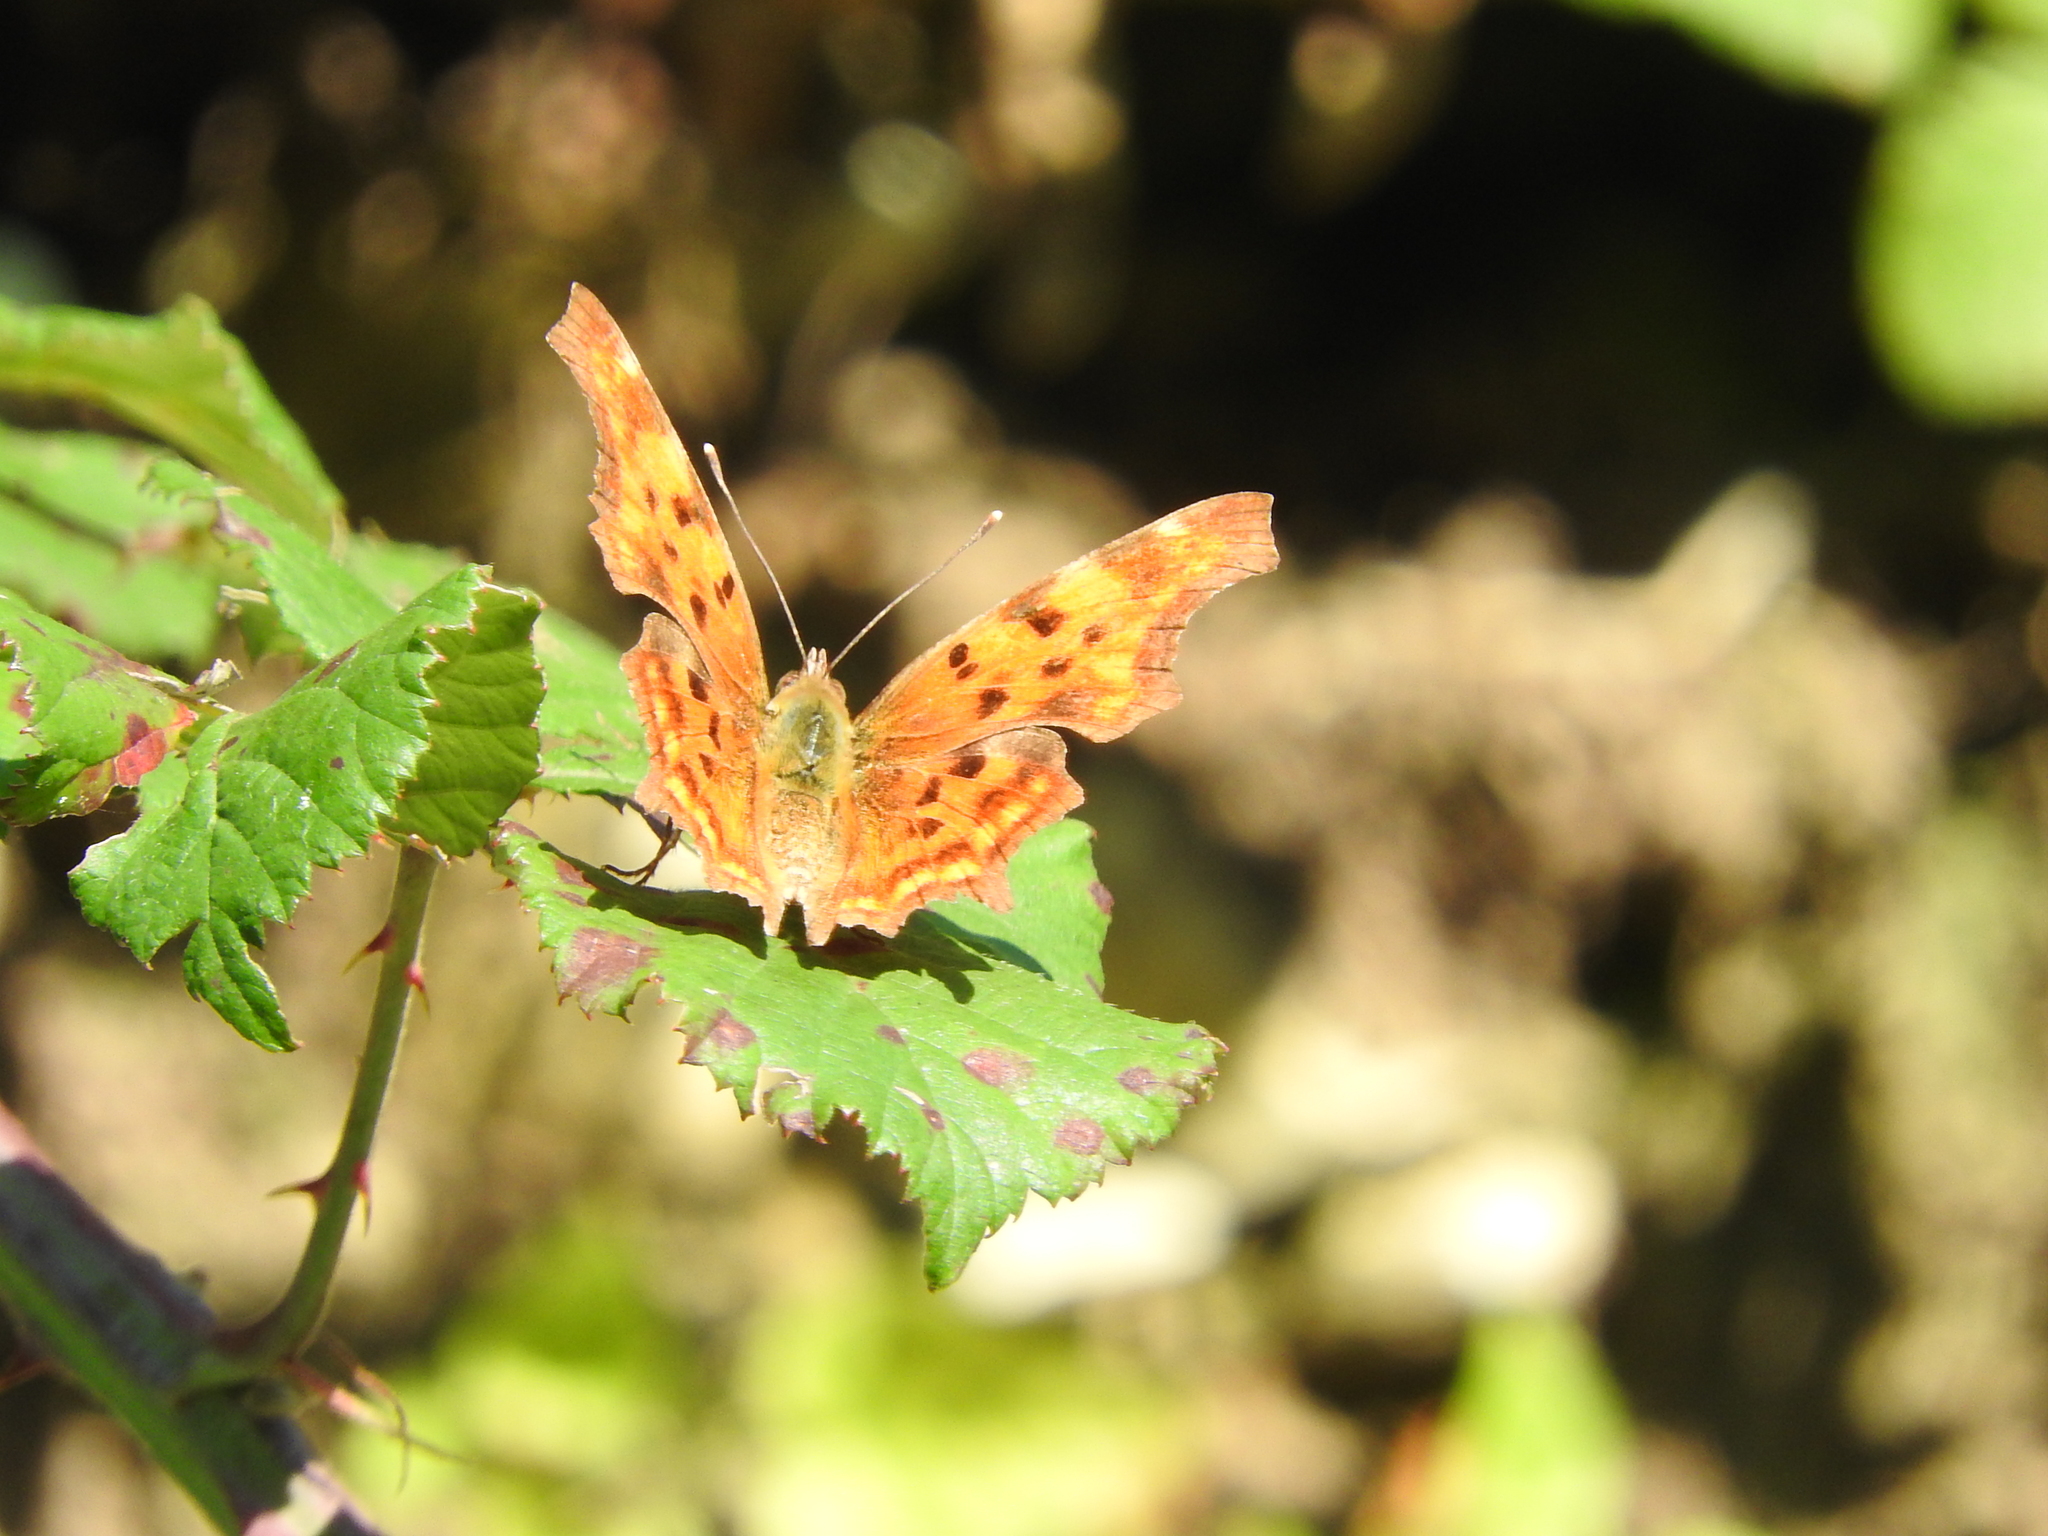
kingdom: Animalia
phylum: Arthropoda
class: Insecta
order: Lepidoptera
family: Nymphalidae
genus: Polygonia
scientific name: Polygonia c-album
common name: Comma
